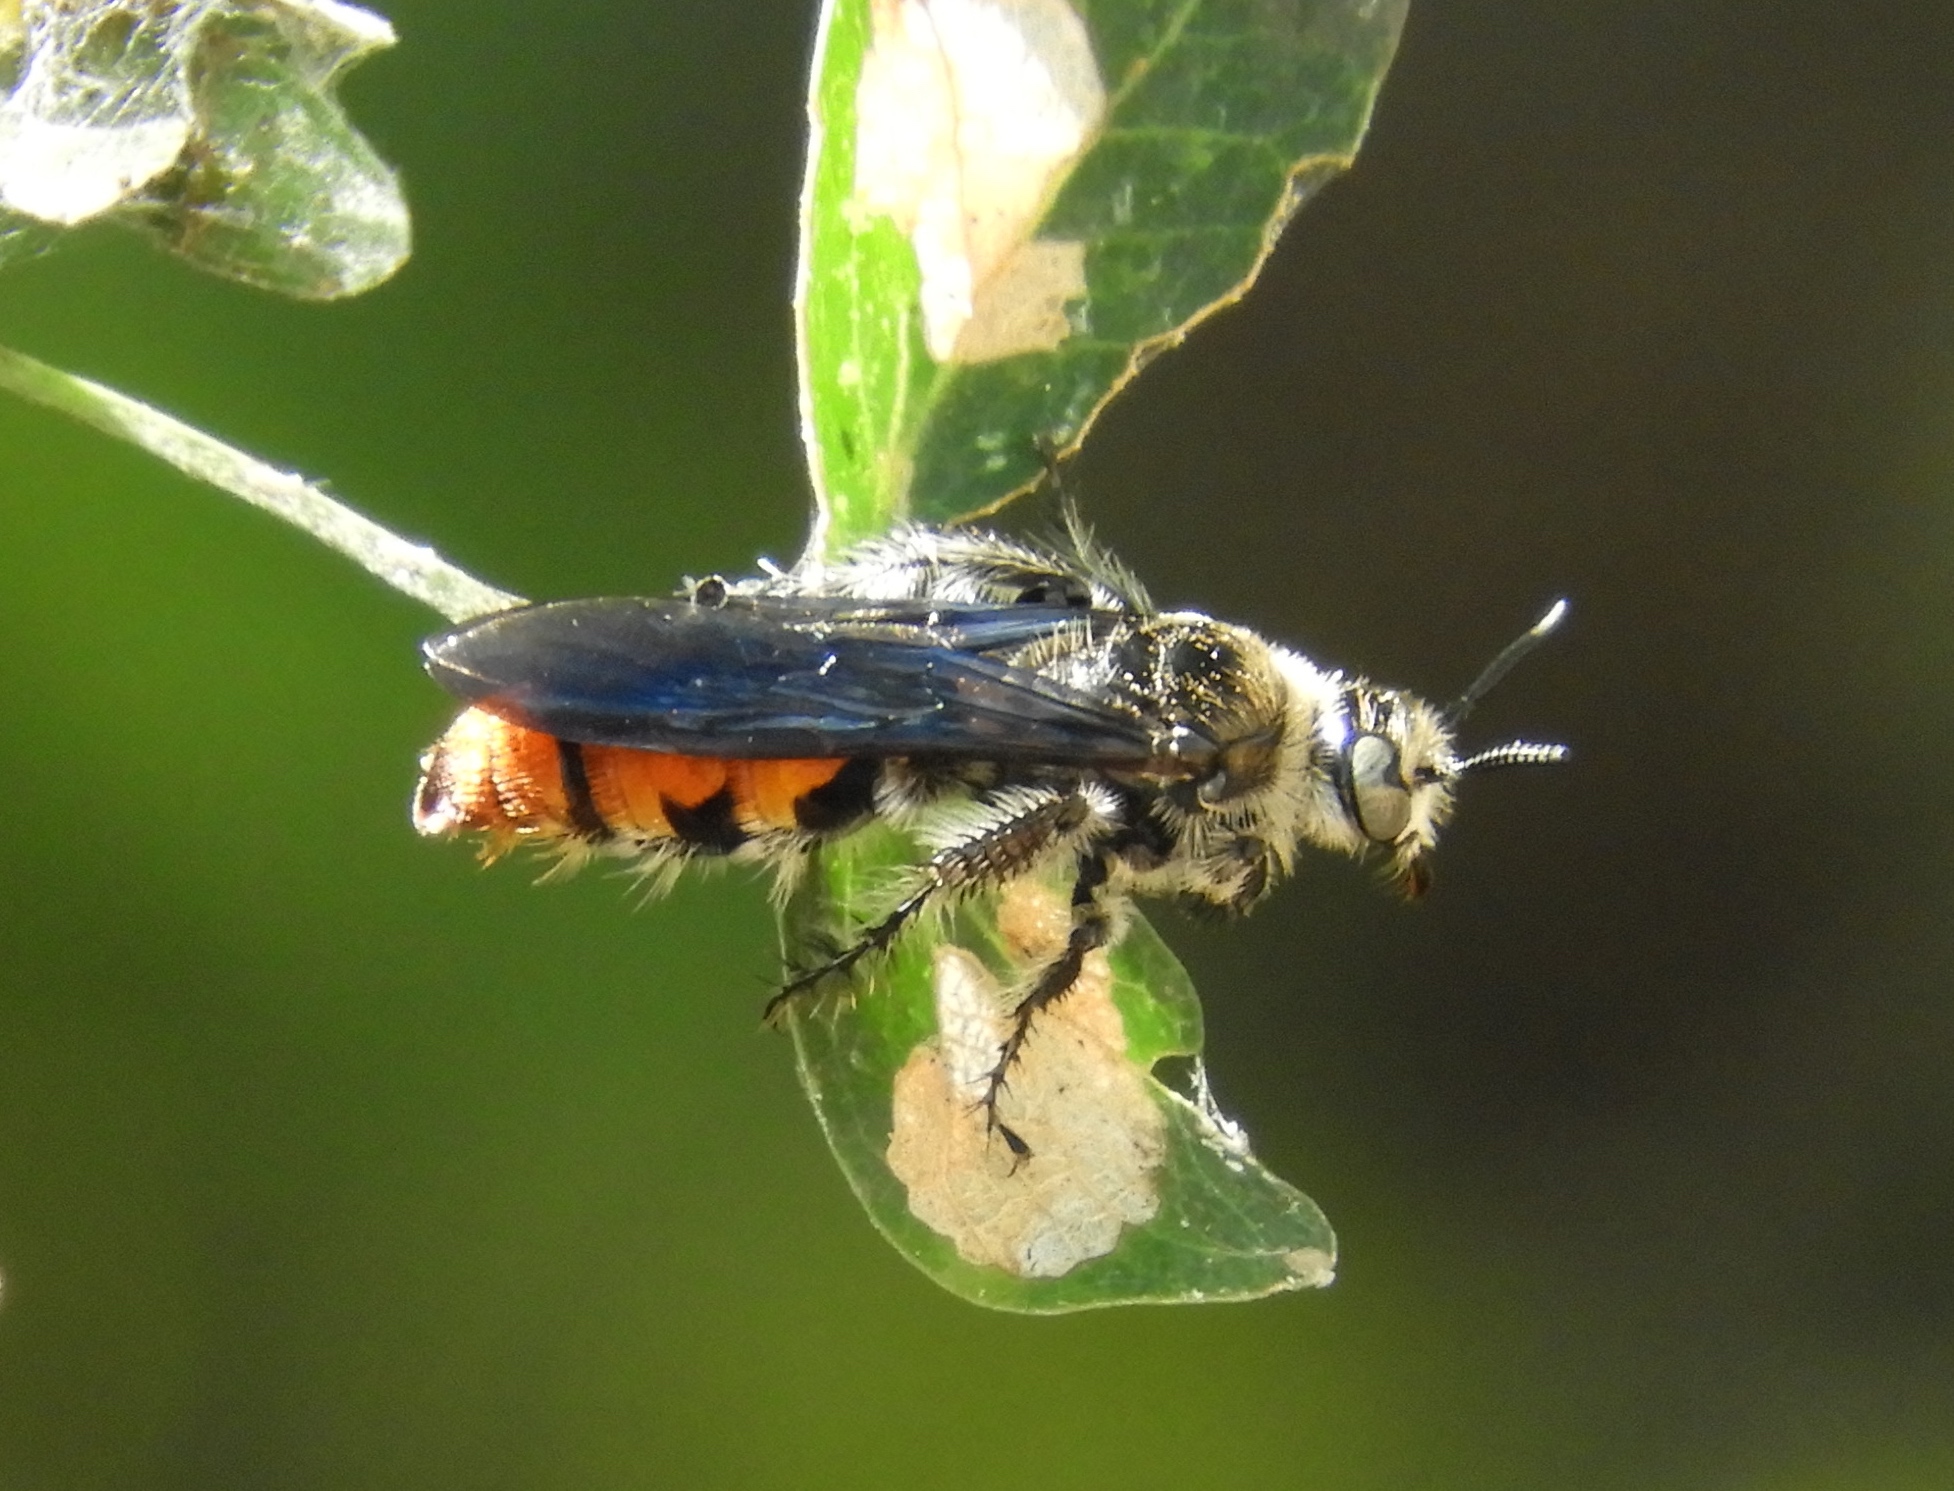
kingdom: Animalia
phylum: Arthropoda
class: Insecta
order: Hymenoptera
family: Scoliidae
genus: Dielis
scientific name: Dielis tolteca
